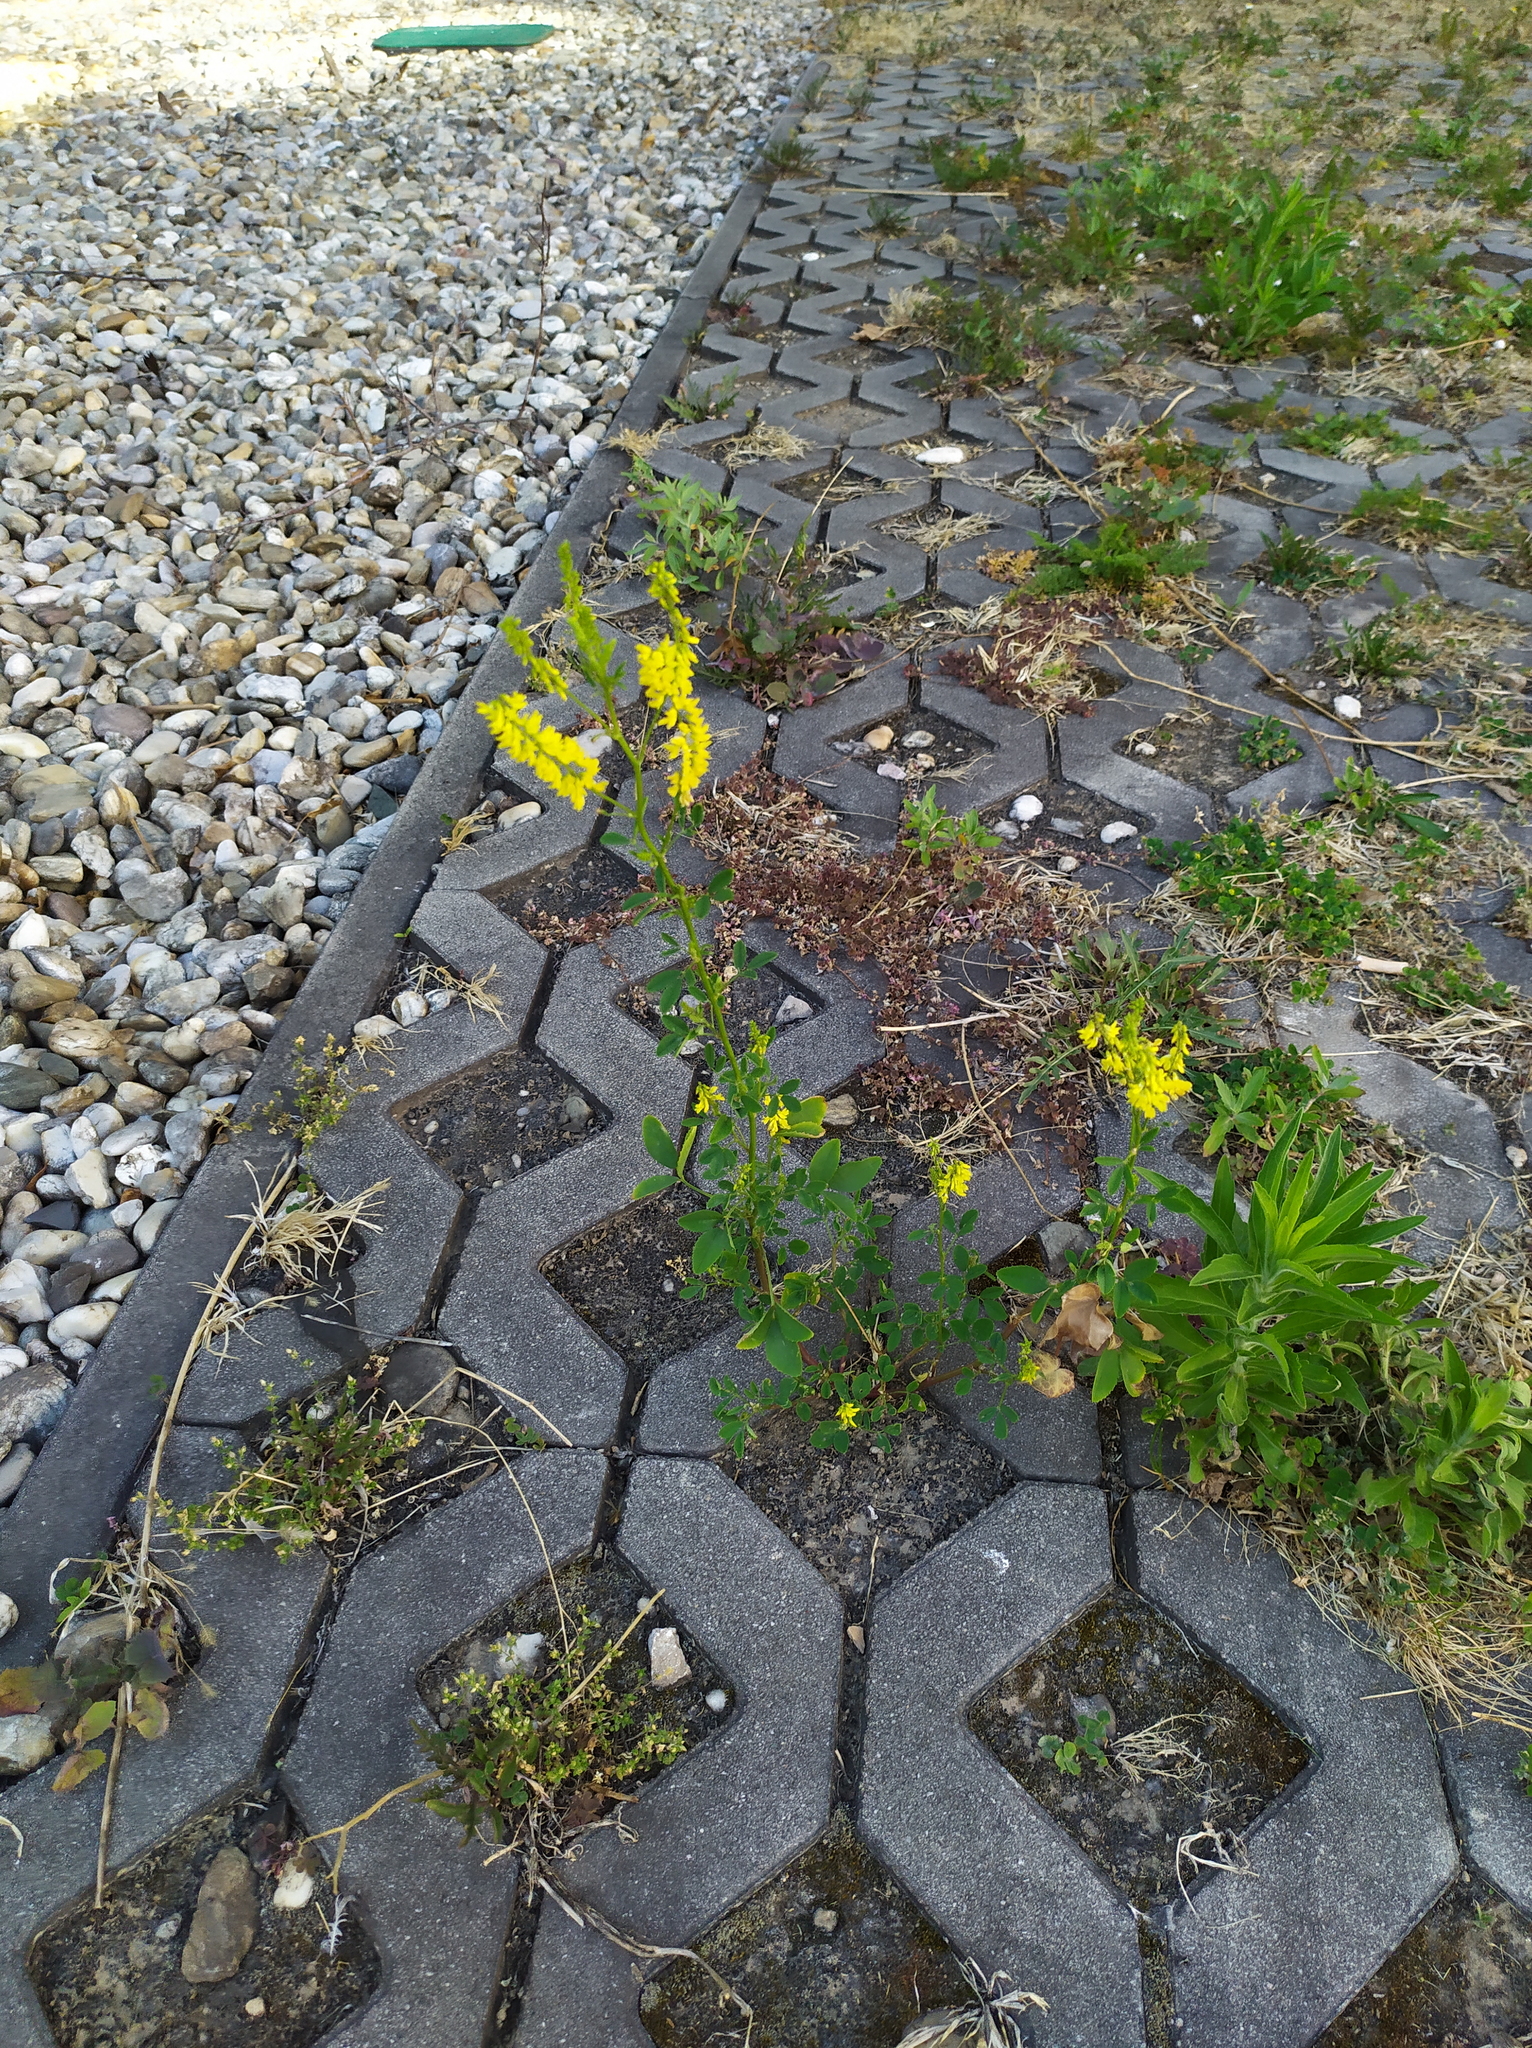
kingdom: Plantae
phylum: Tracheophyta
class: Magnoliopsida
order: Fabales
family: Fabaceae
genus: Melilotus
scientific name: Melilotus officinalis
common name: Sweetclover
